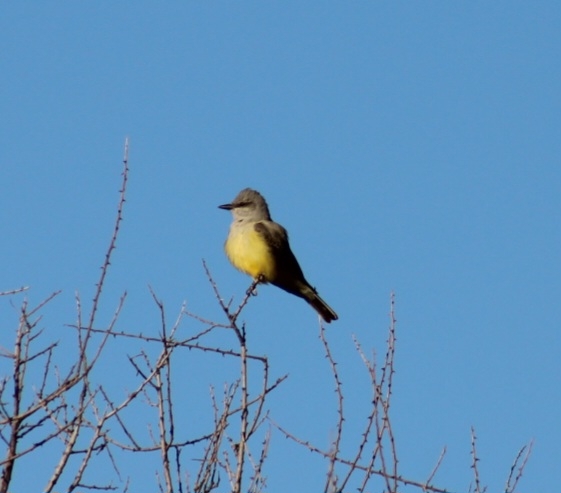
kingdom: Animalia
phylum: Chordata
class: Aves
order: Passeriformes
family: Tyrannidae
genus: Tyrannus
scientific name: Tyrannus verticalis
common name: Western kingbird
